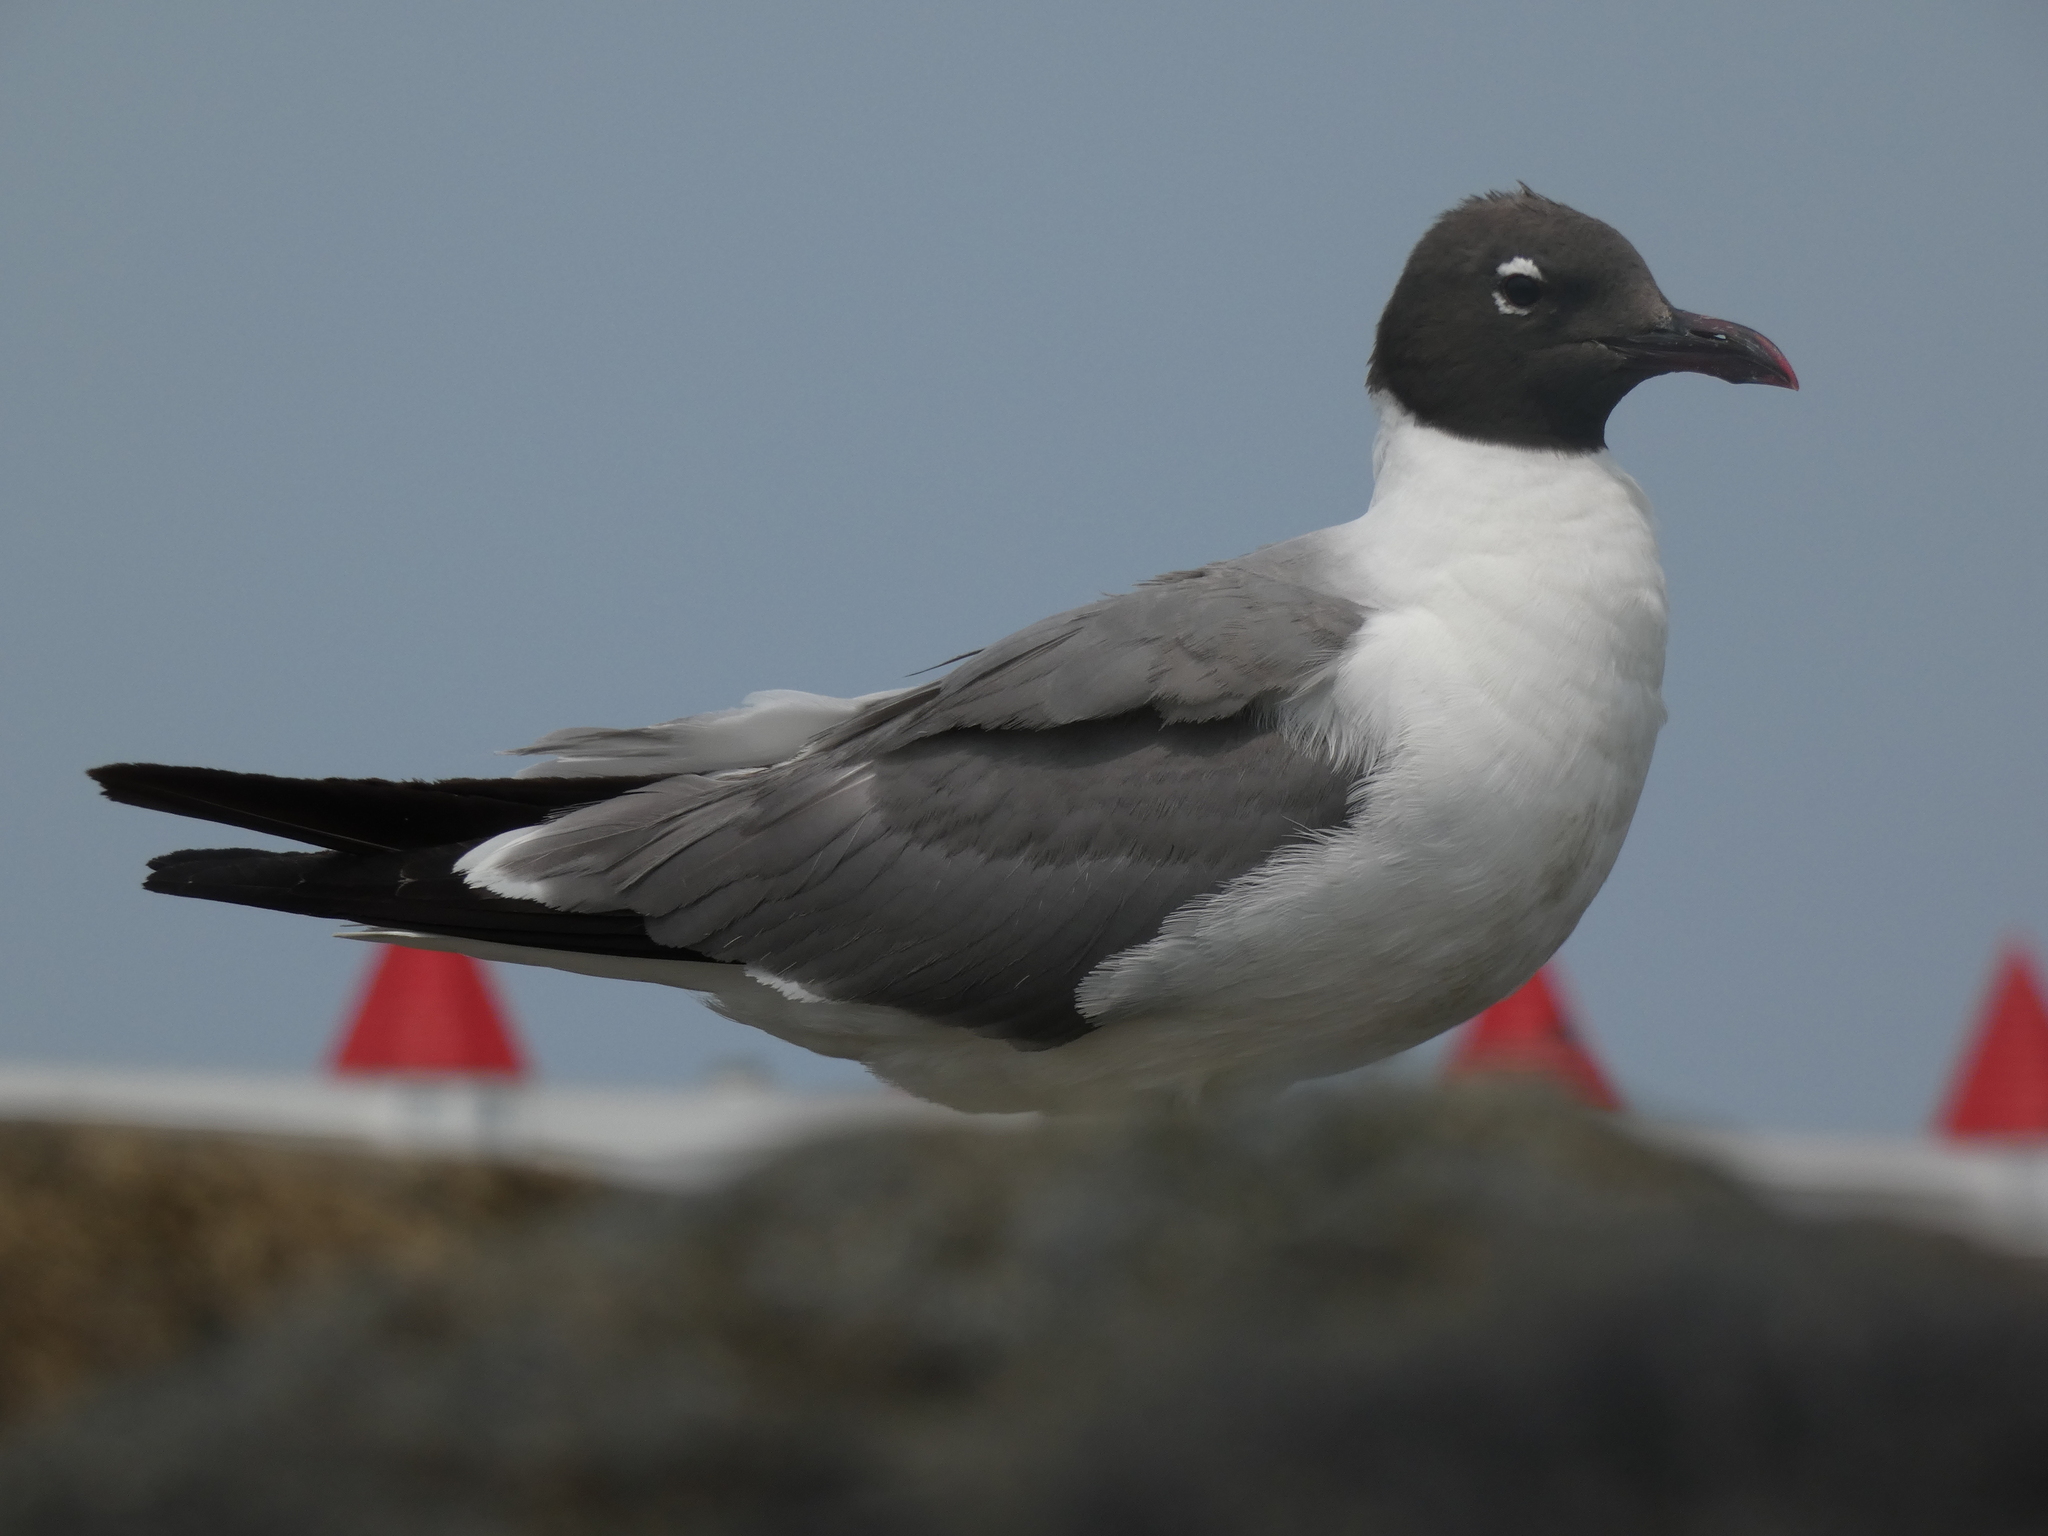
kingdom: Animalia
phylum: Chordata
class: Aves
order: Charadriiformes
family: Laridae
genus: Leucophaeus
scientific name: Leucophaeus atricilla
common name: Laughing gull
